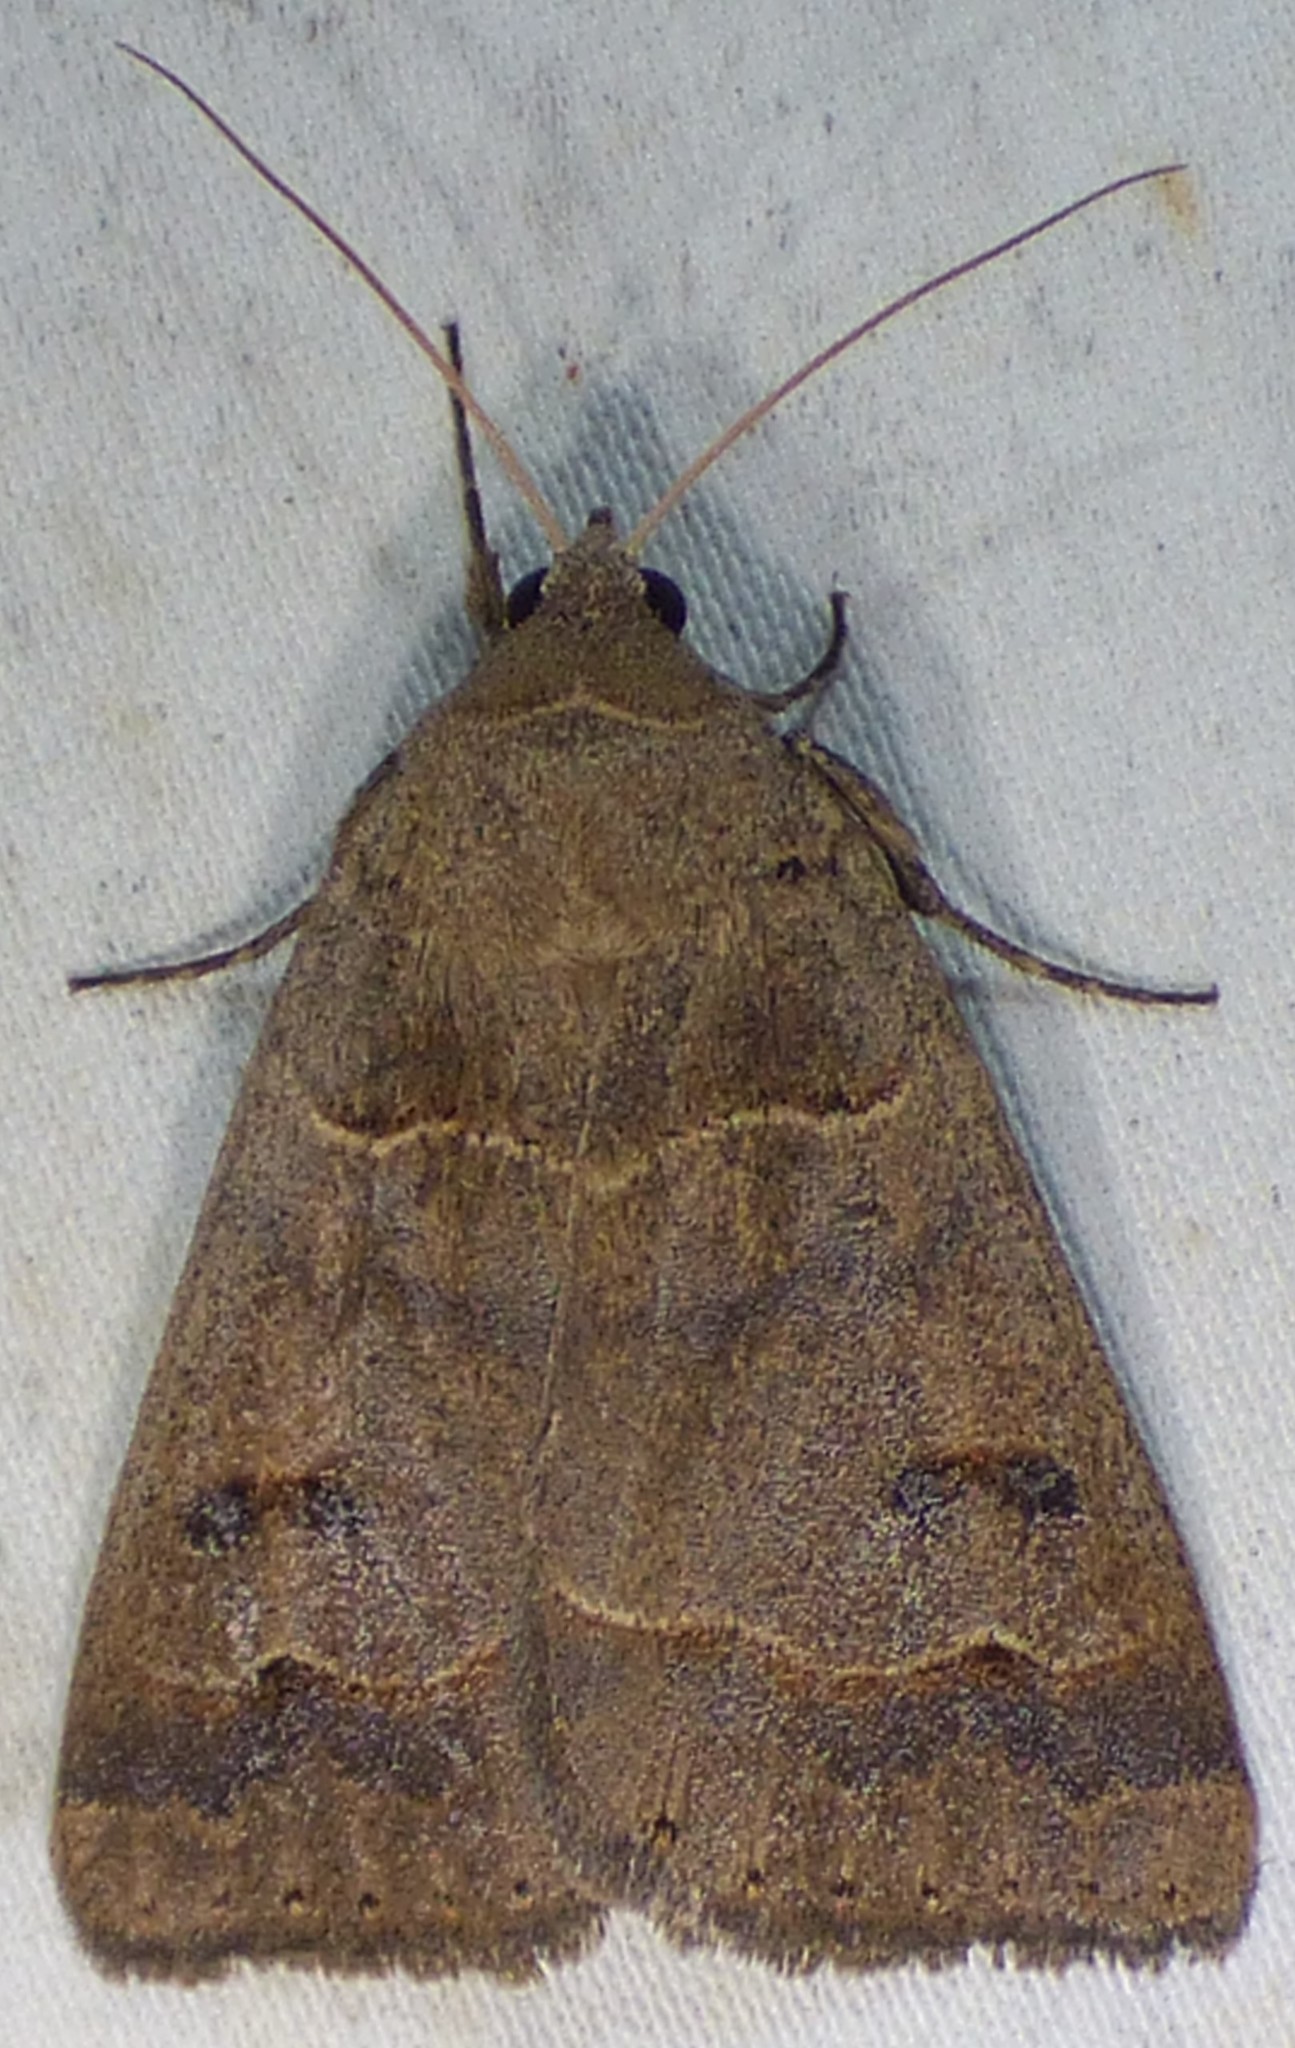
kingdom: Animalia
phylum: Arthropoda
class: Insecta
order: Lepidoptera
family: Erebidae
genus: Phoberia
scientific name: Phoberia atomaris
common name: Common oak moth
